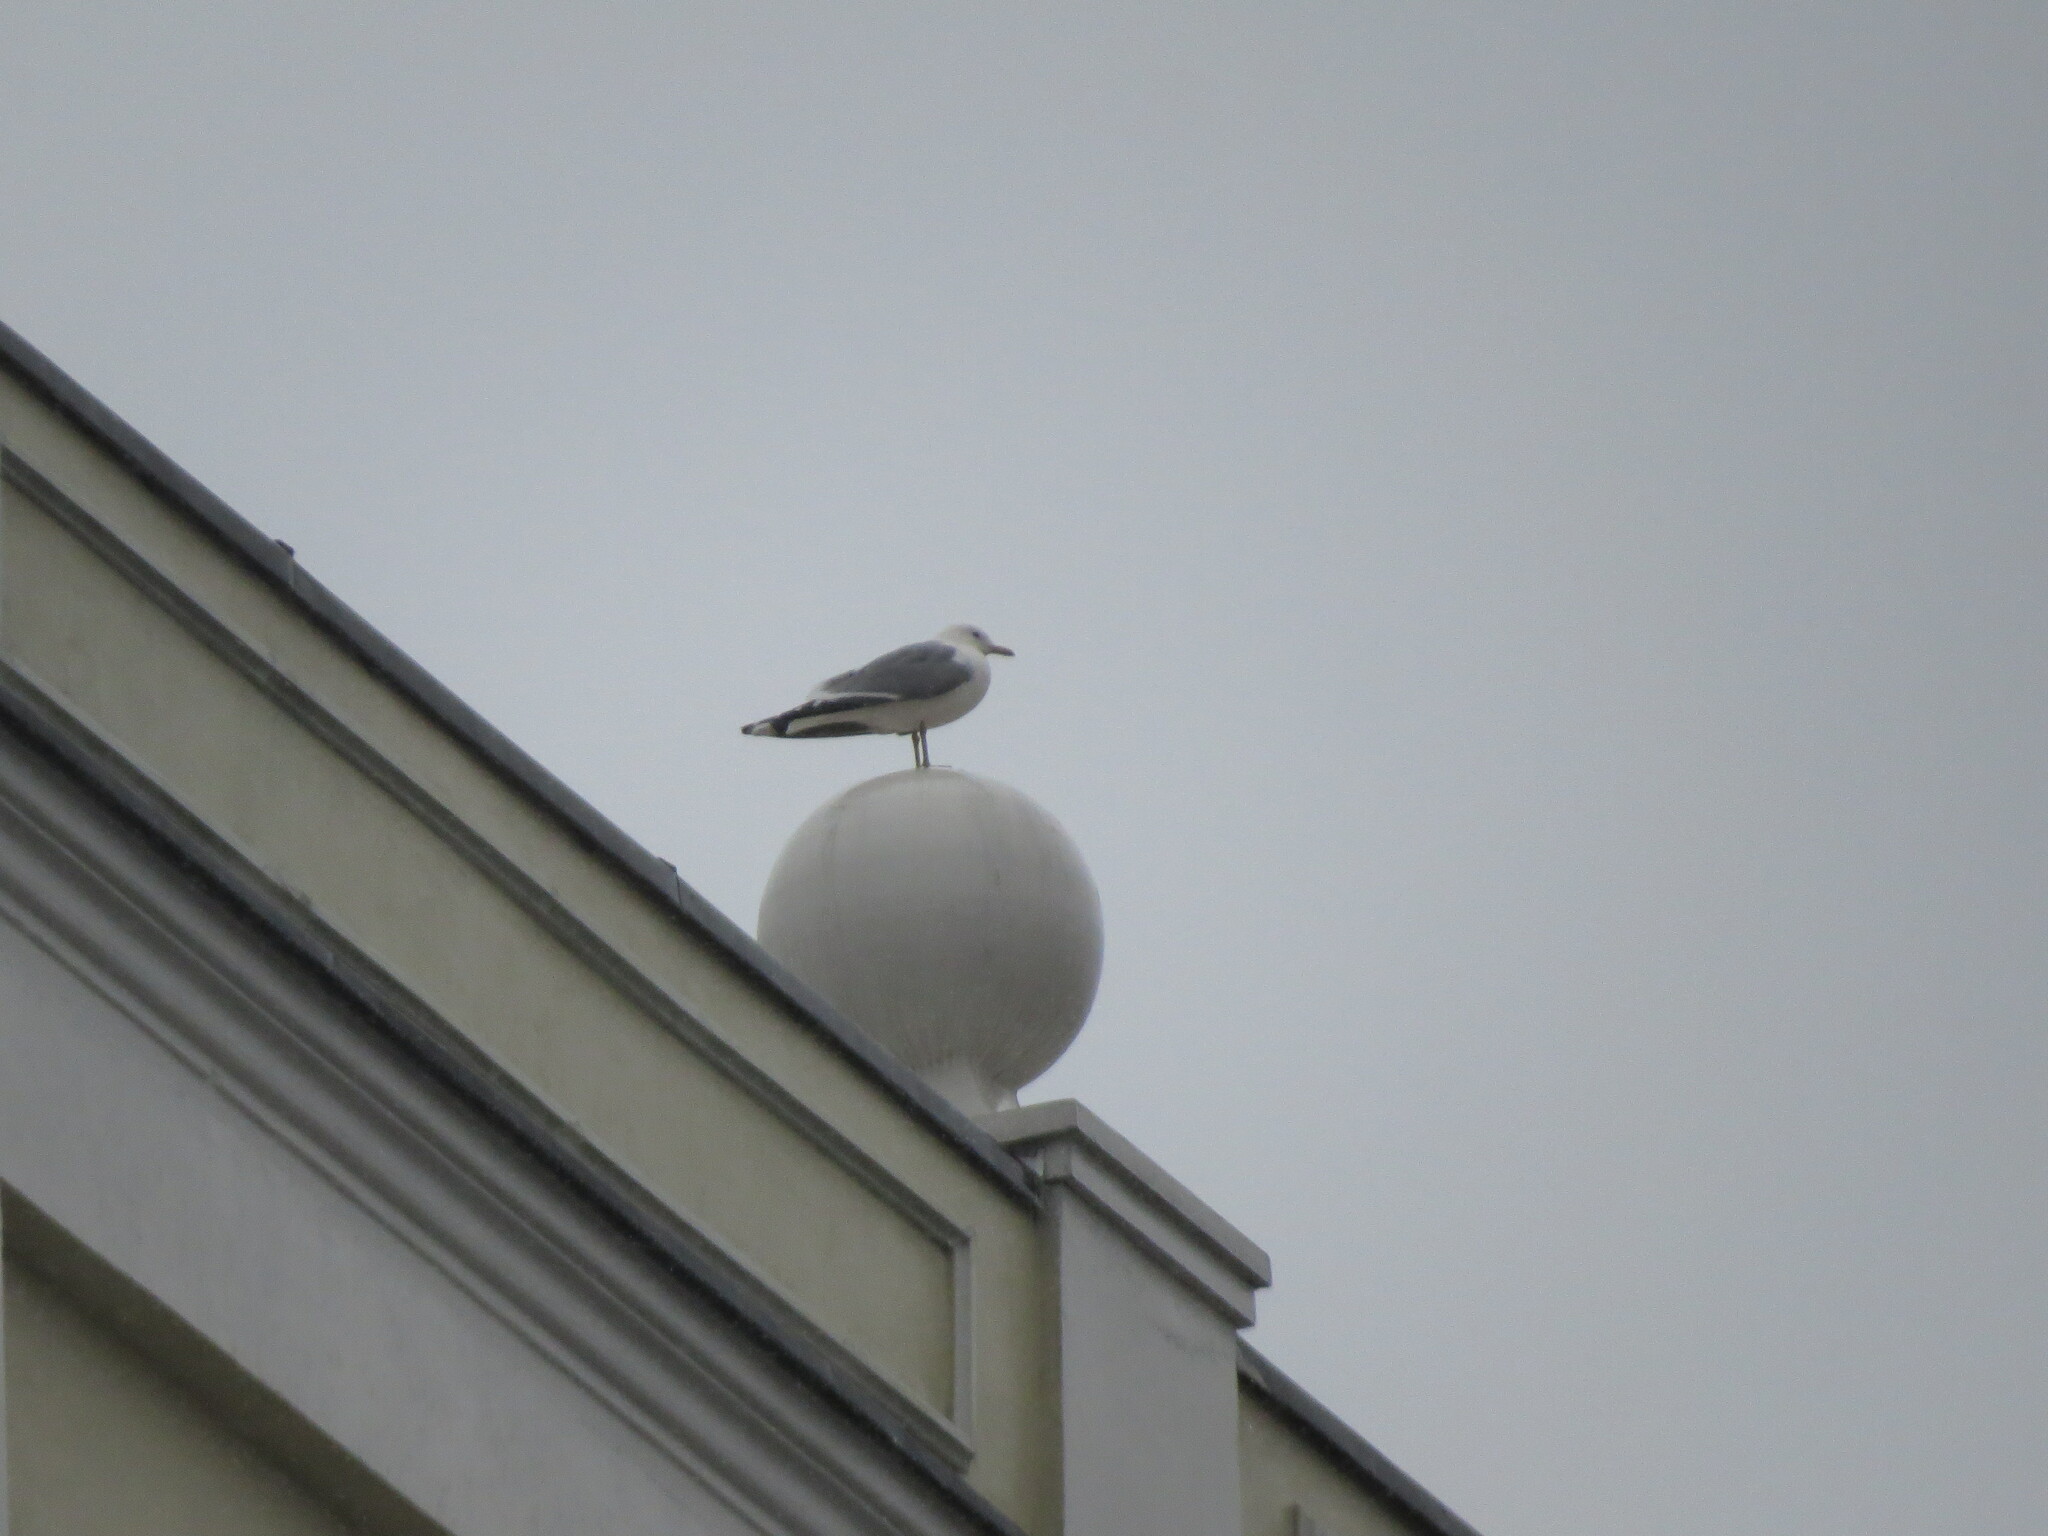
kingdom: Animalia
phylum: Chordata
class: Aves
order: Charadriiformes
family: Laridae
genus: Larus
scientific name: Larus canus
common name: Mew gull
